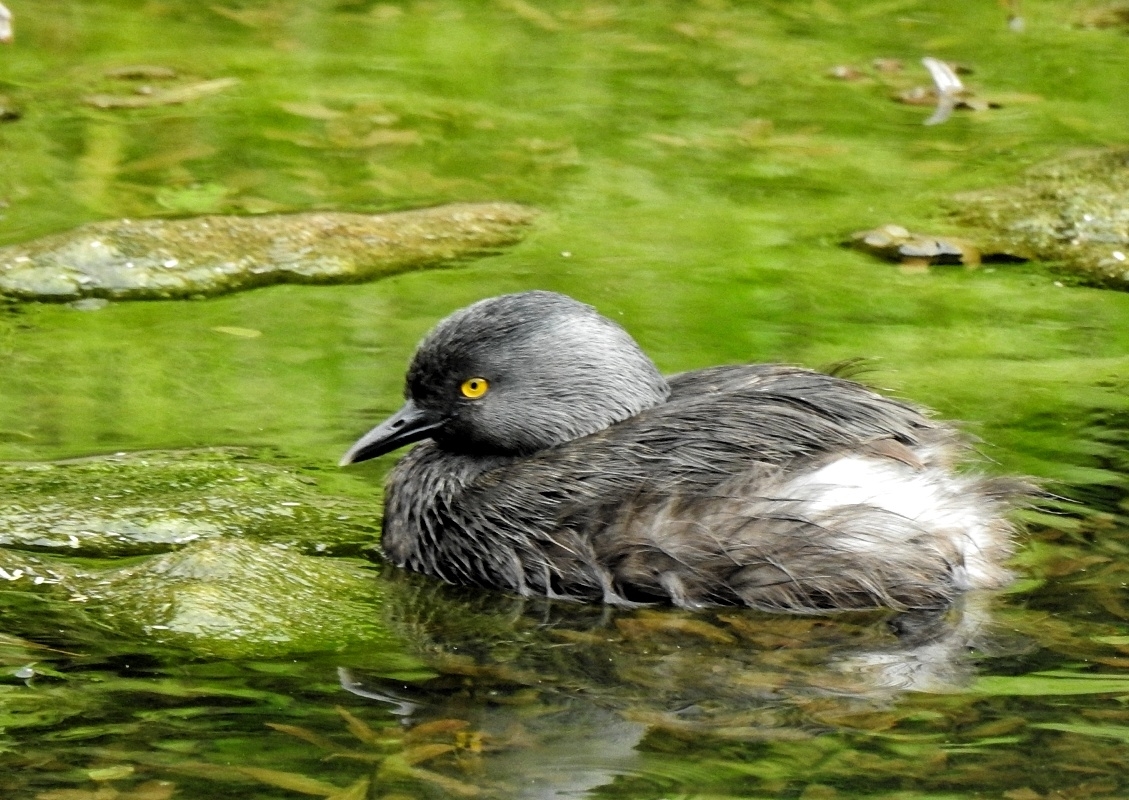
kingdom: Animalia
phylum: Chordata
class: Aves
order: Podicipediformes
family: Podicipedidae
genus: Tachybaptus
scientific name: Tachybaptus dominicus
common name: Least grebe
